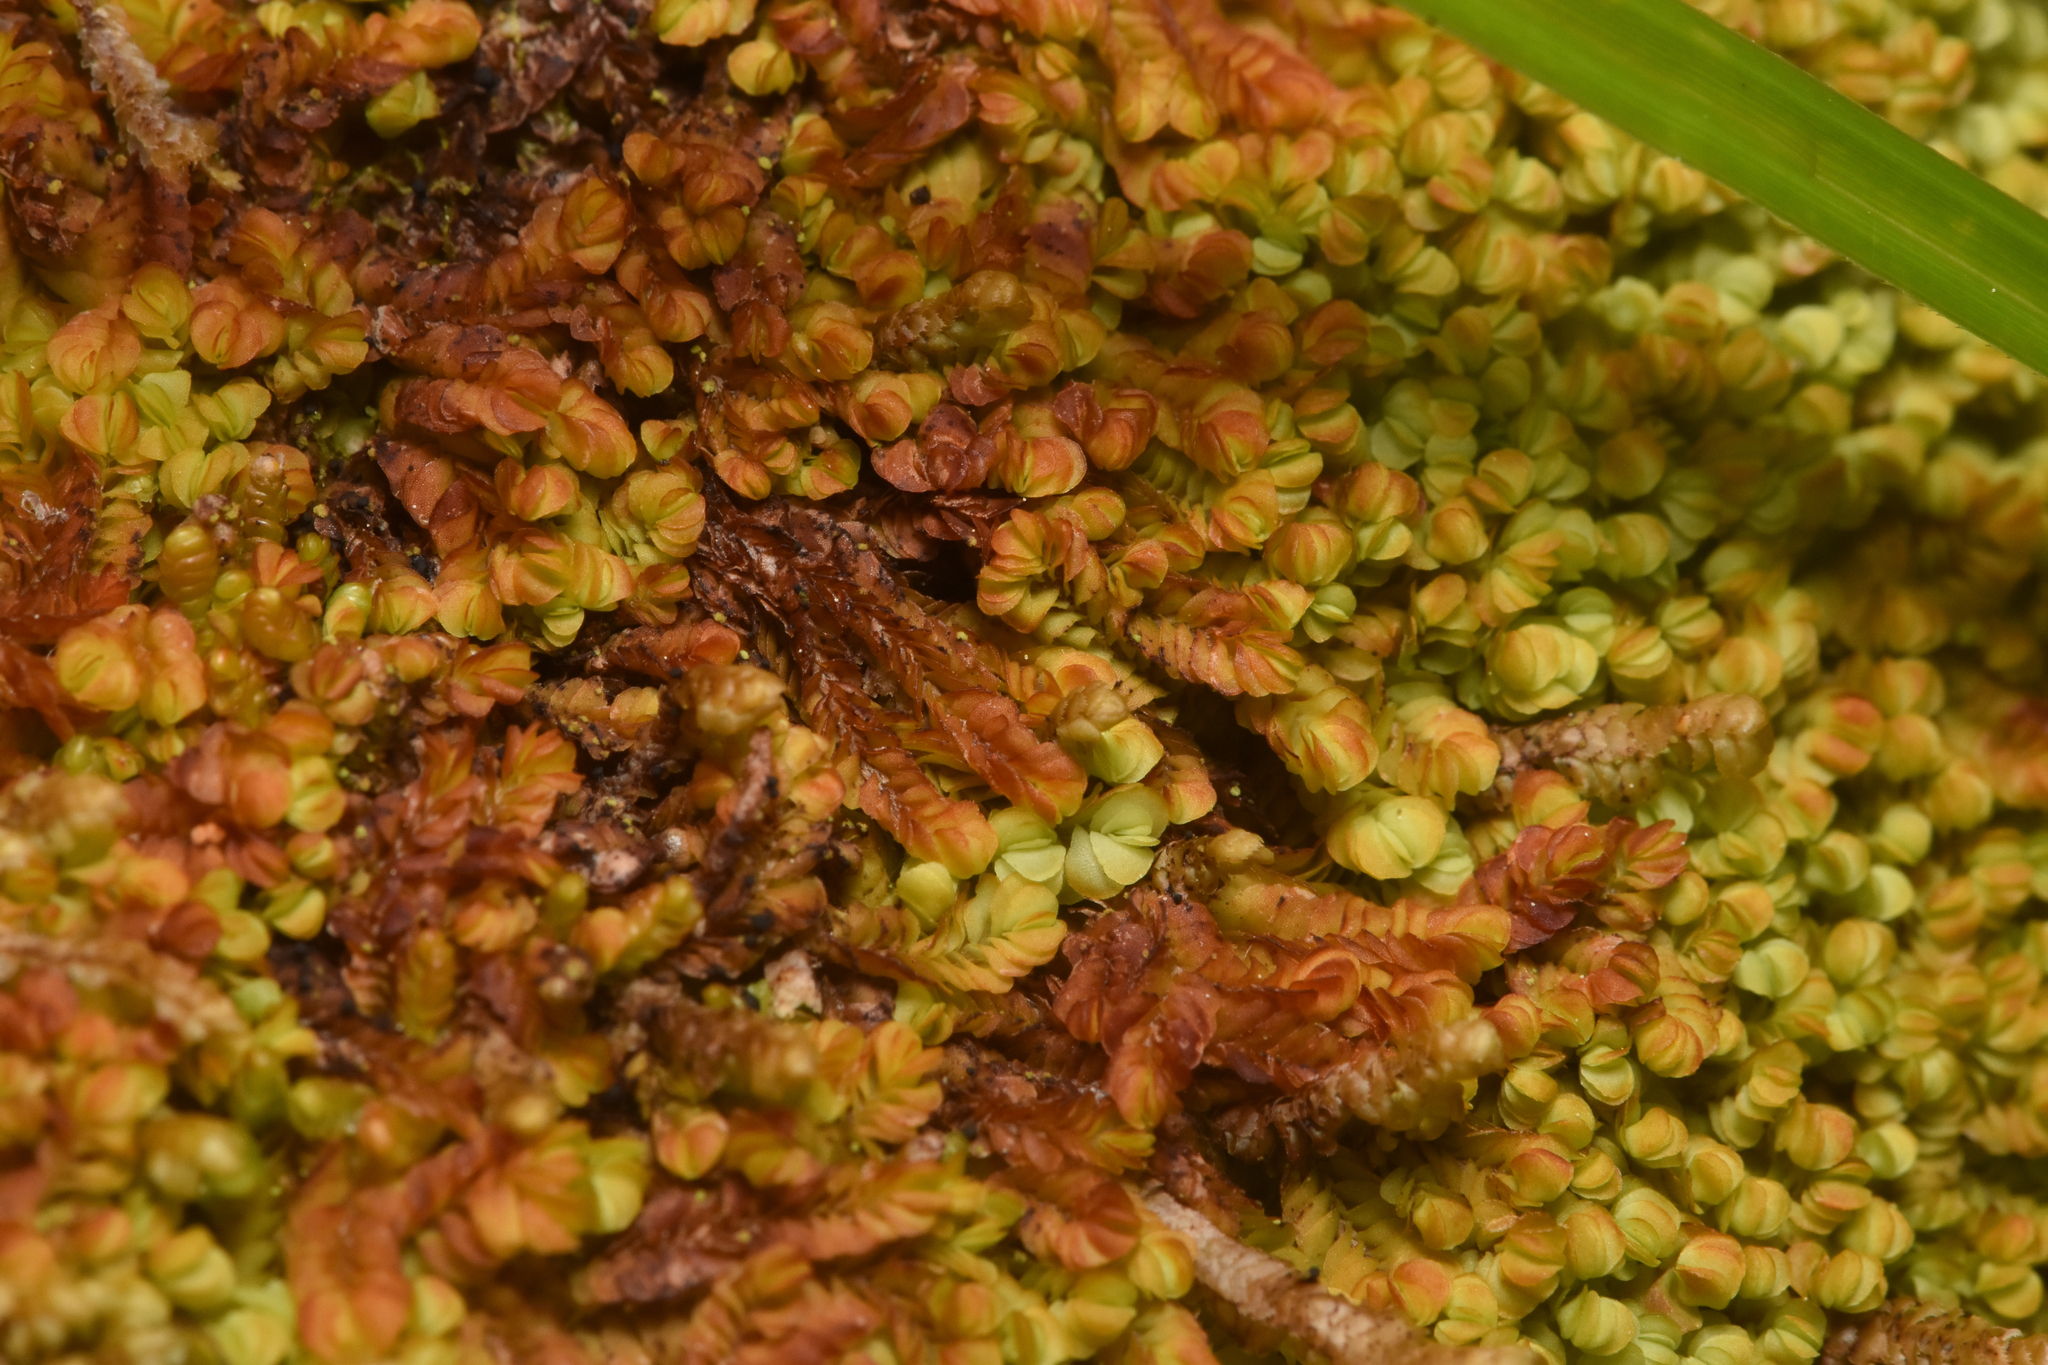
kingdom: Plantae
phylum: Marchantiophyta
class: Jungermanniopsida
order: Jungermanniales
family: Myliaceae
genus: Mylia
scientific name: Mylia taylorii
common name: Taylor s flapwort
